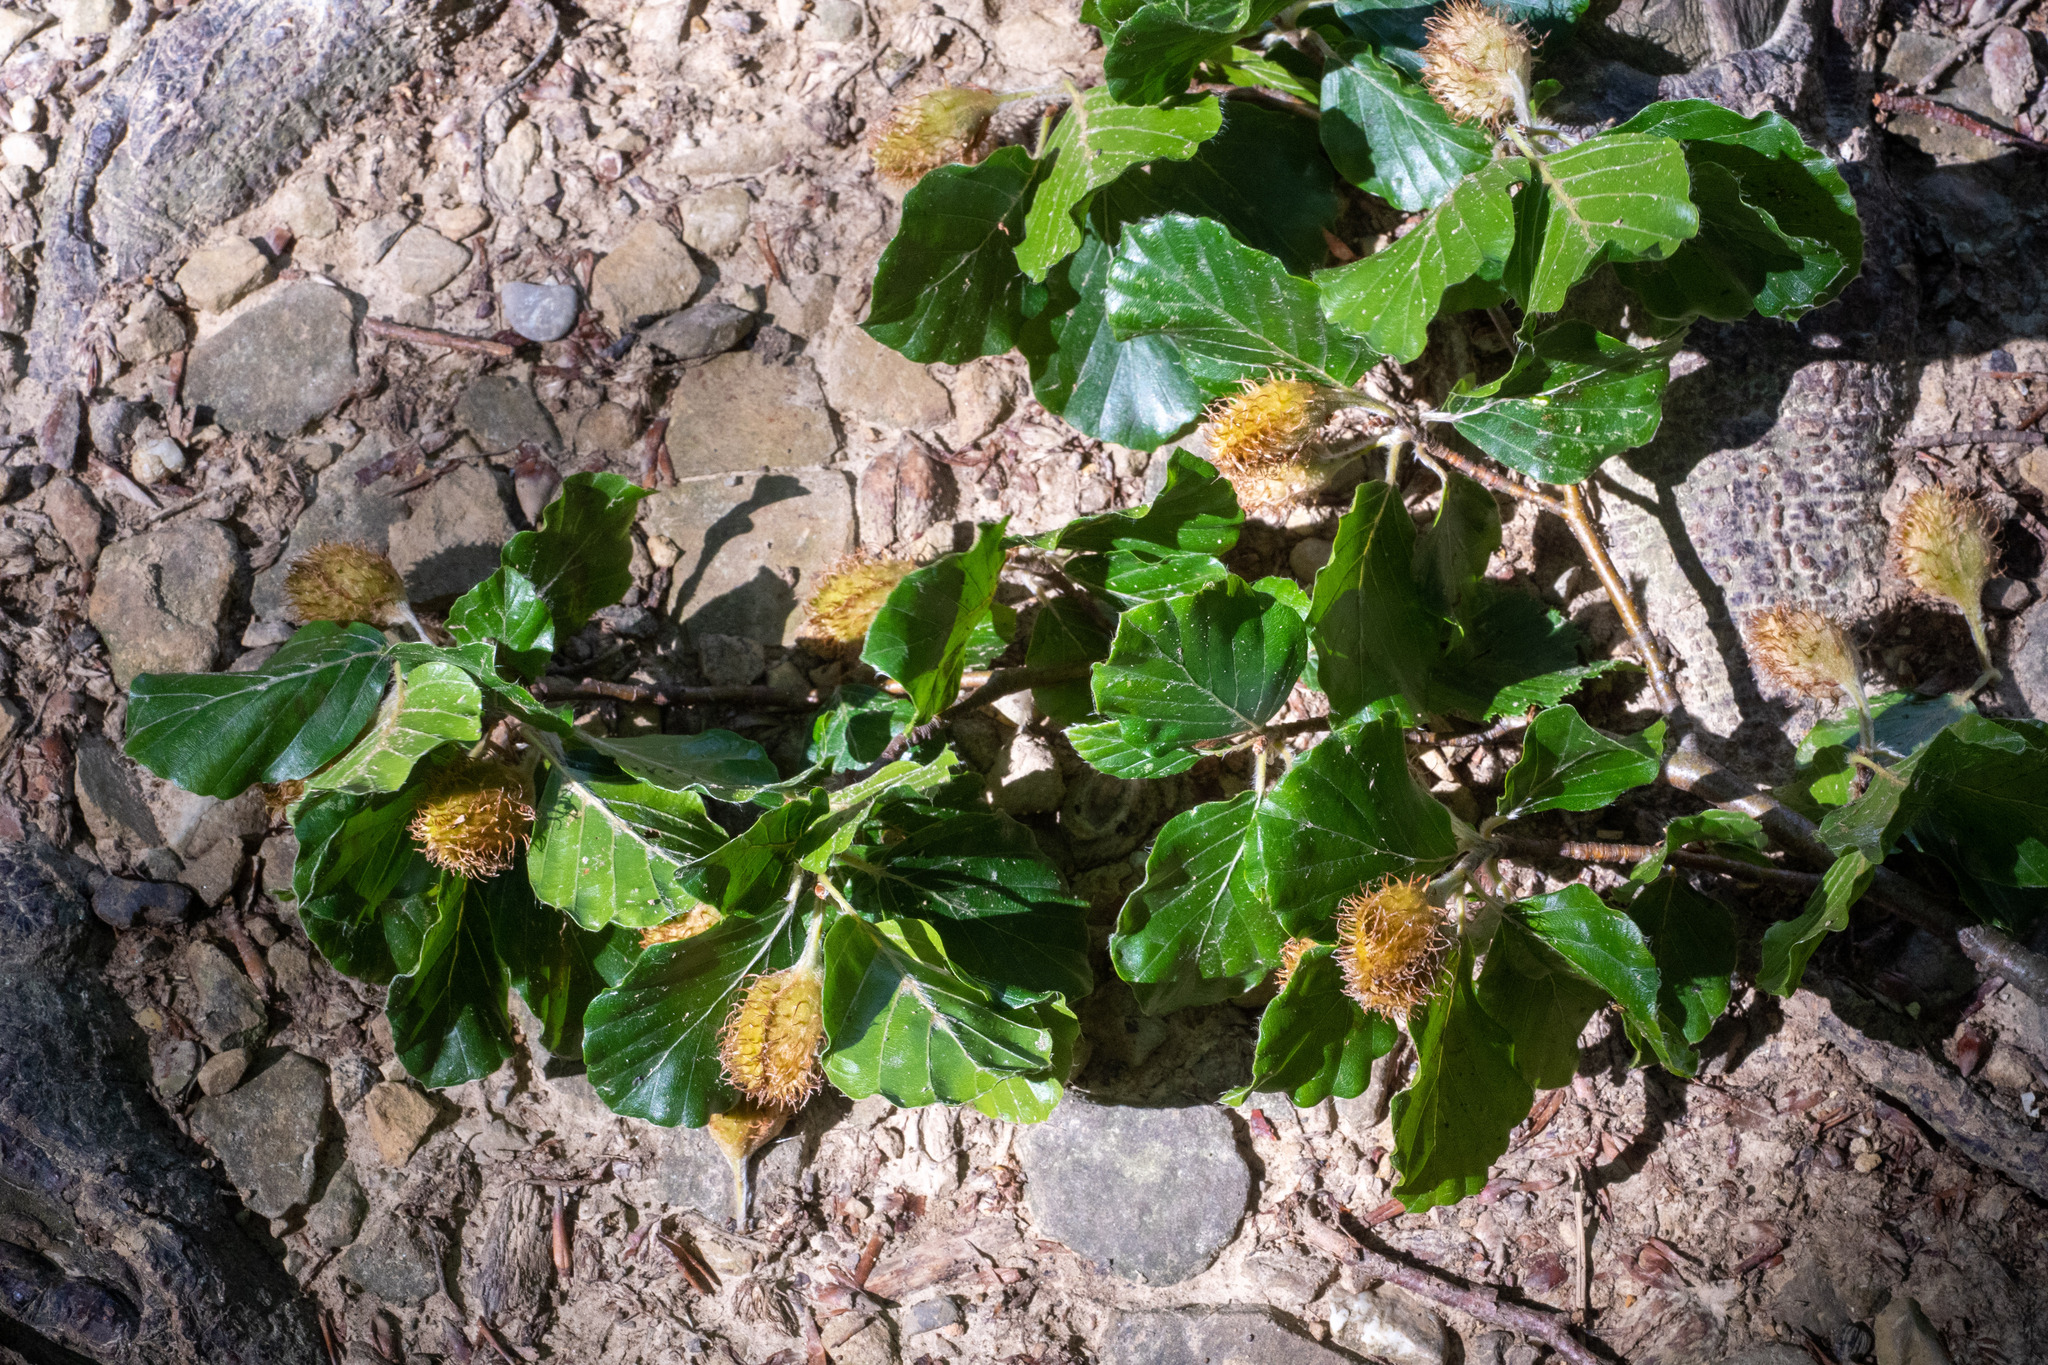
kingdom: Plantae
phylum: Tracheophyta
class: Magnoliopsida
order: Fagales
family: Fagaceae
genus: Fagus
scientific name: Fagus sylvatica
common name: Beech
